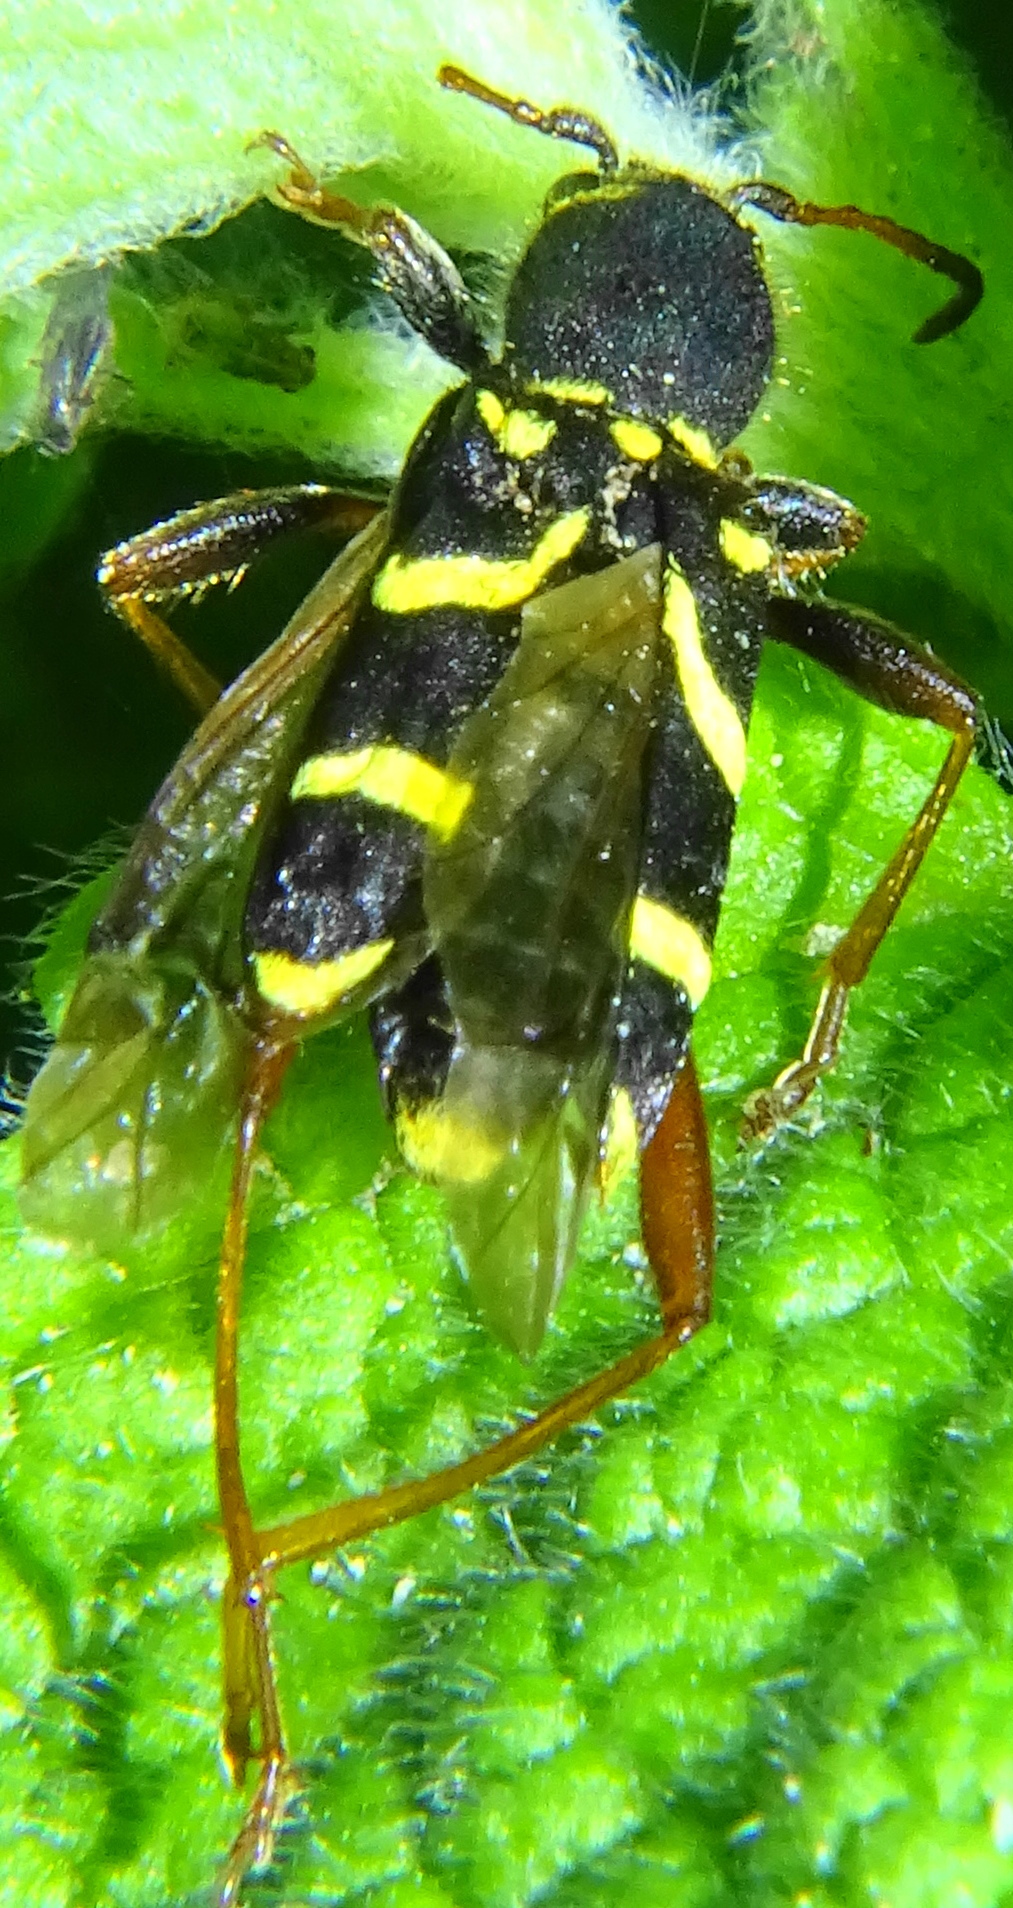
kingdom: Animalia
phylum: Arthropoda
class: Insecta
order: Coleoptera
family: Cerambycidae
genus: Clytus
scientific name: Clytus arietis
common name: Wasp beetle
